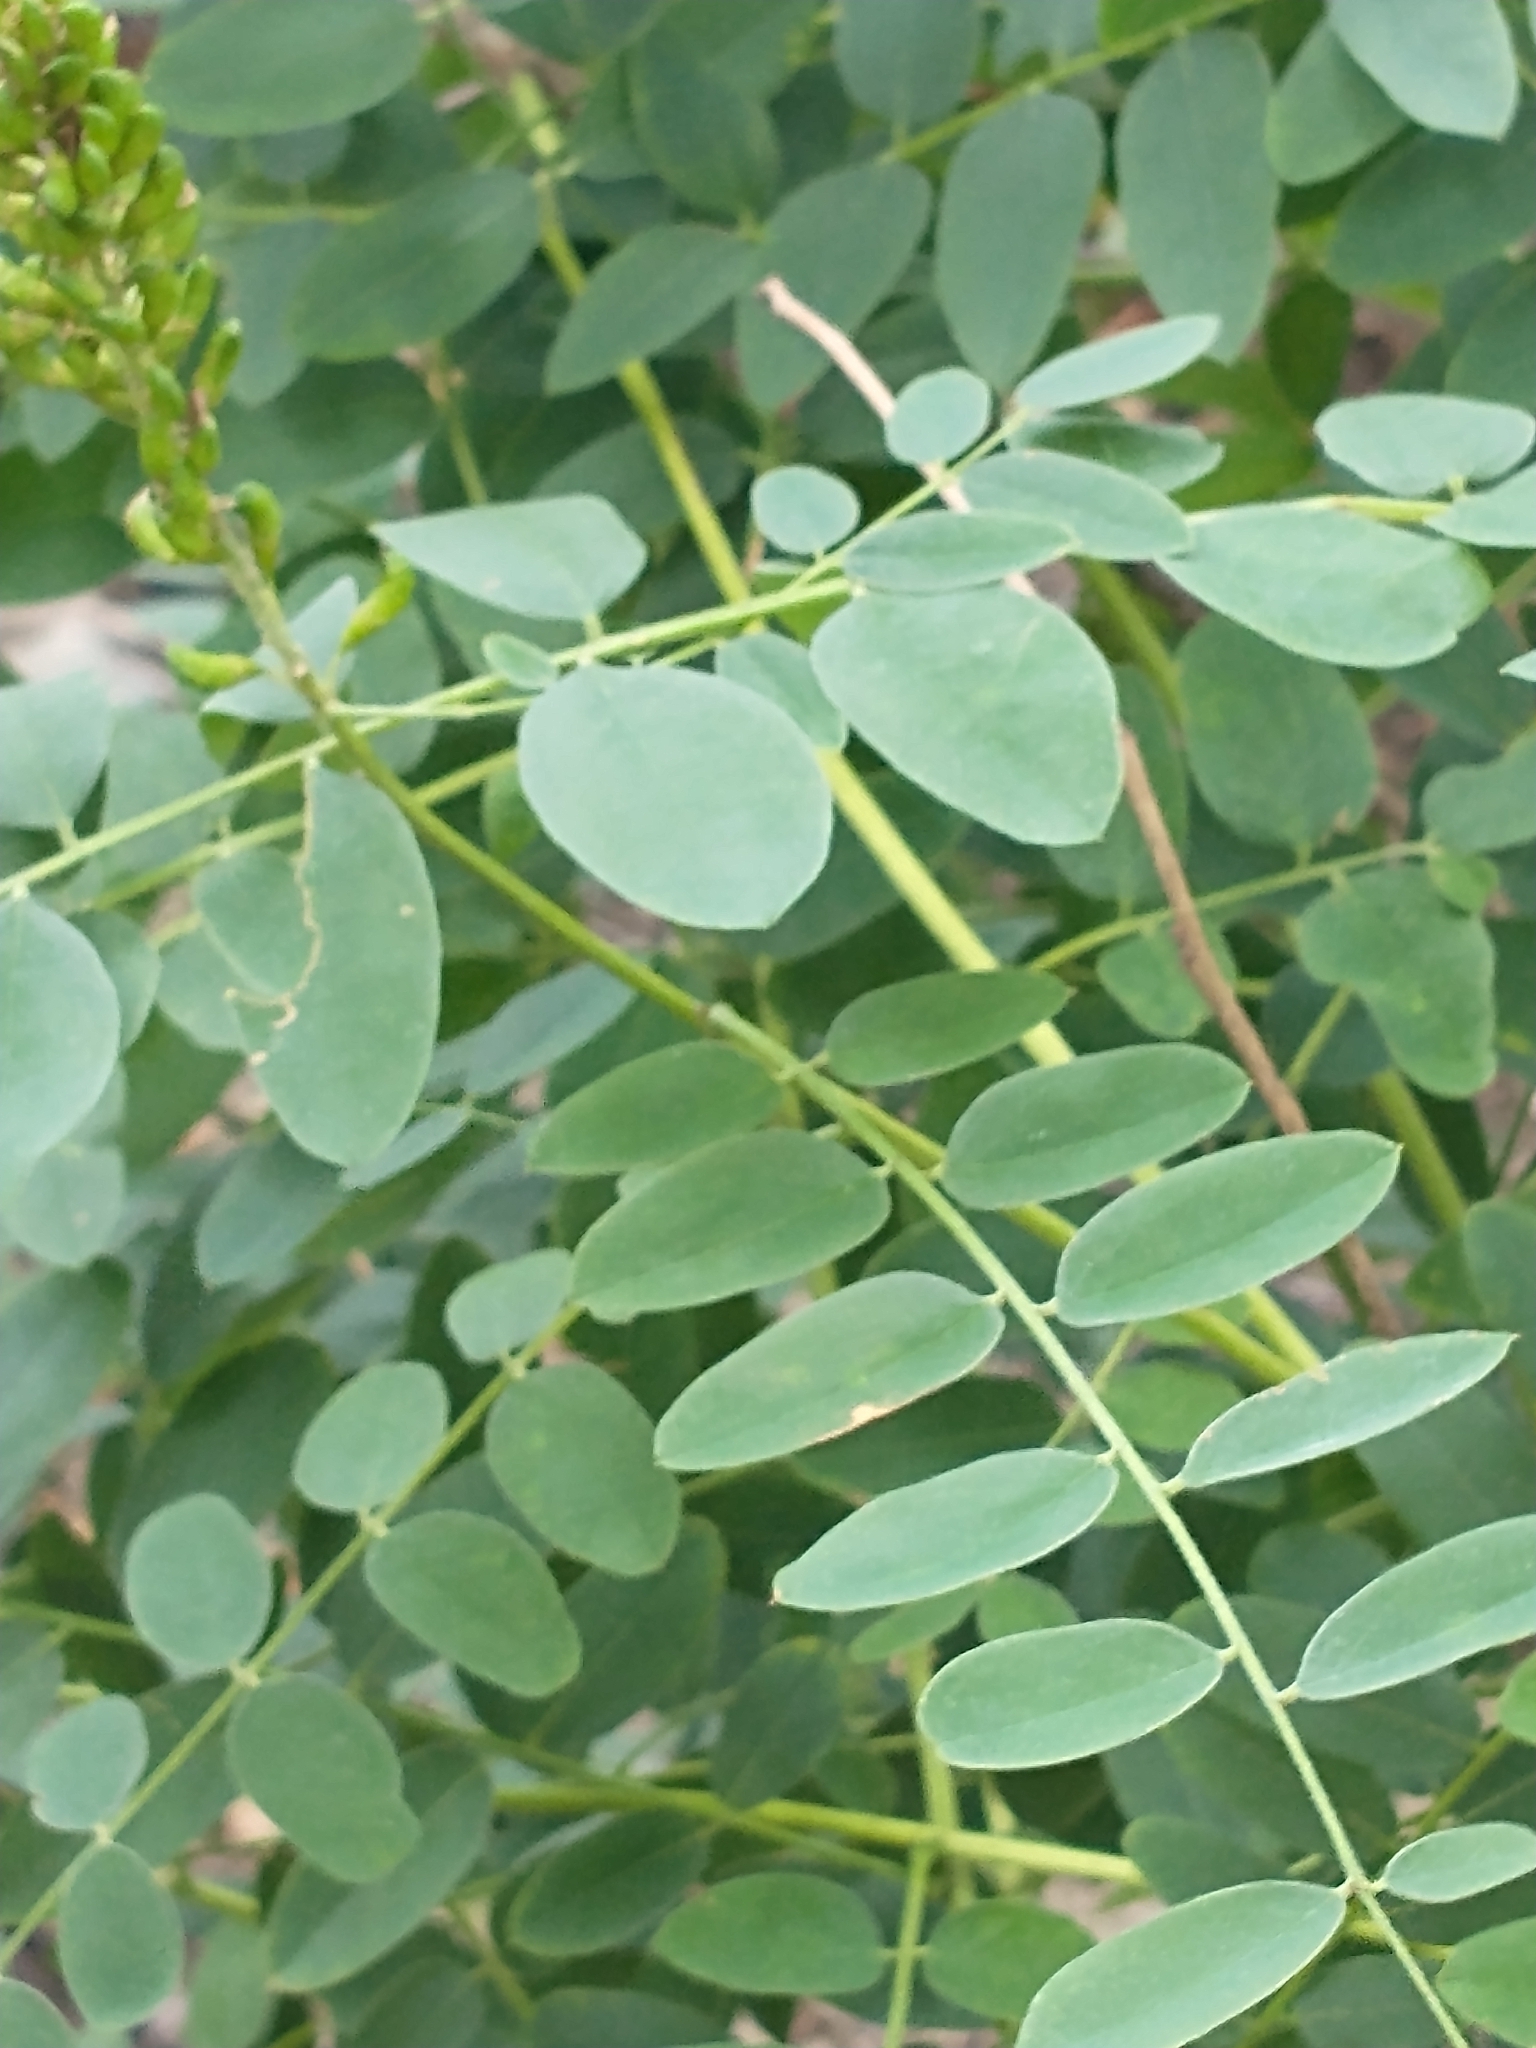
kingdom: Plantae
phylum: Tracheophyta
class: Magnoliopsida
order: Fabales
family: Fabaceae
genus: Amorpha
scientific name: Amorpha fruticosa
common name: False indigo
